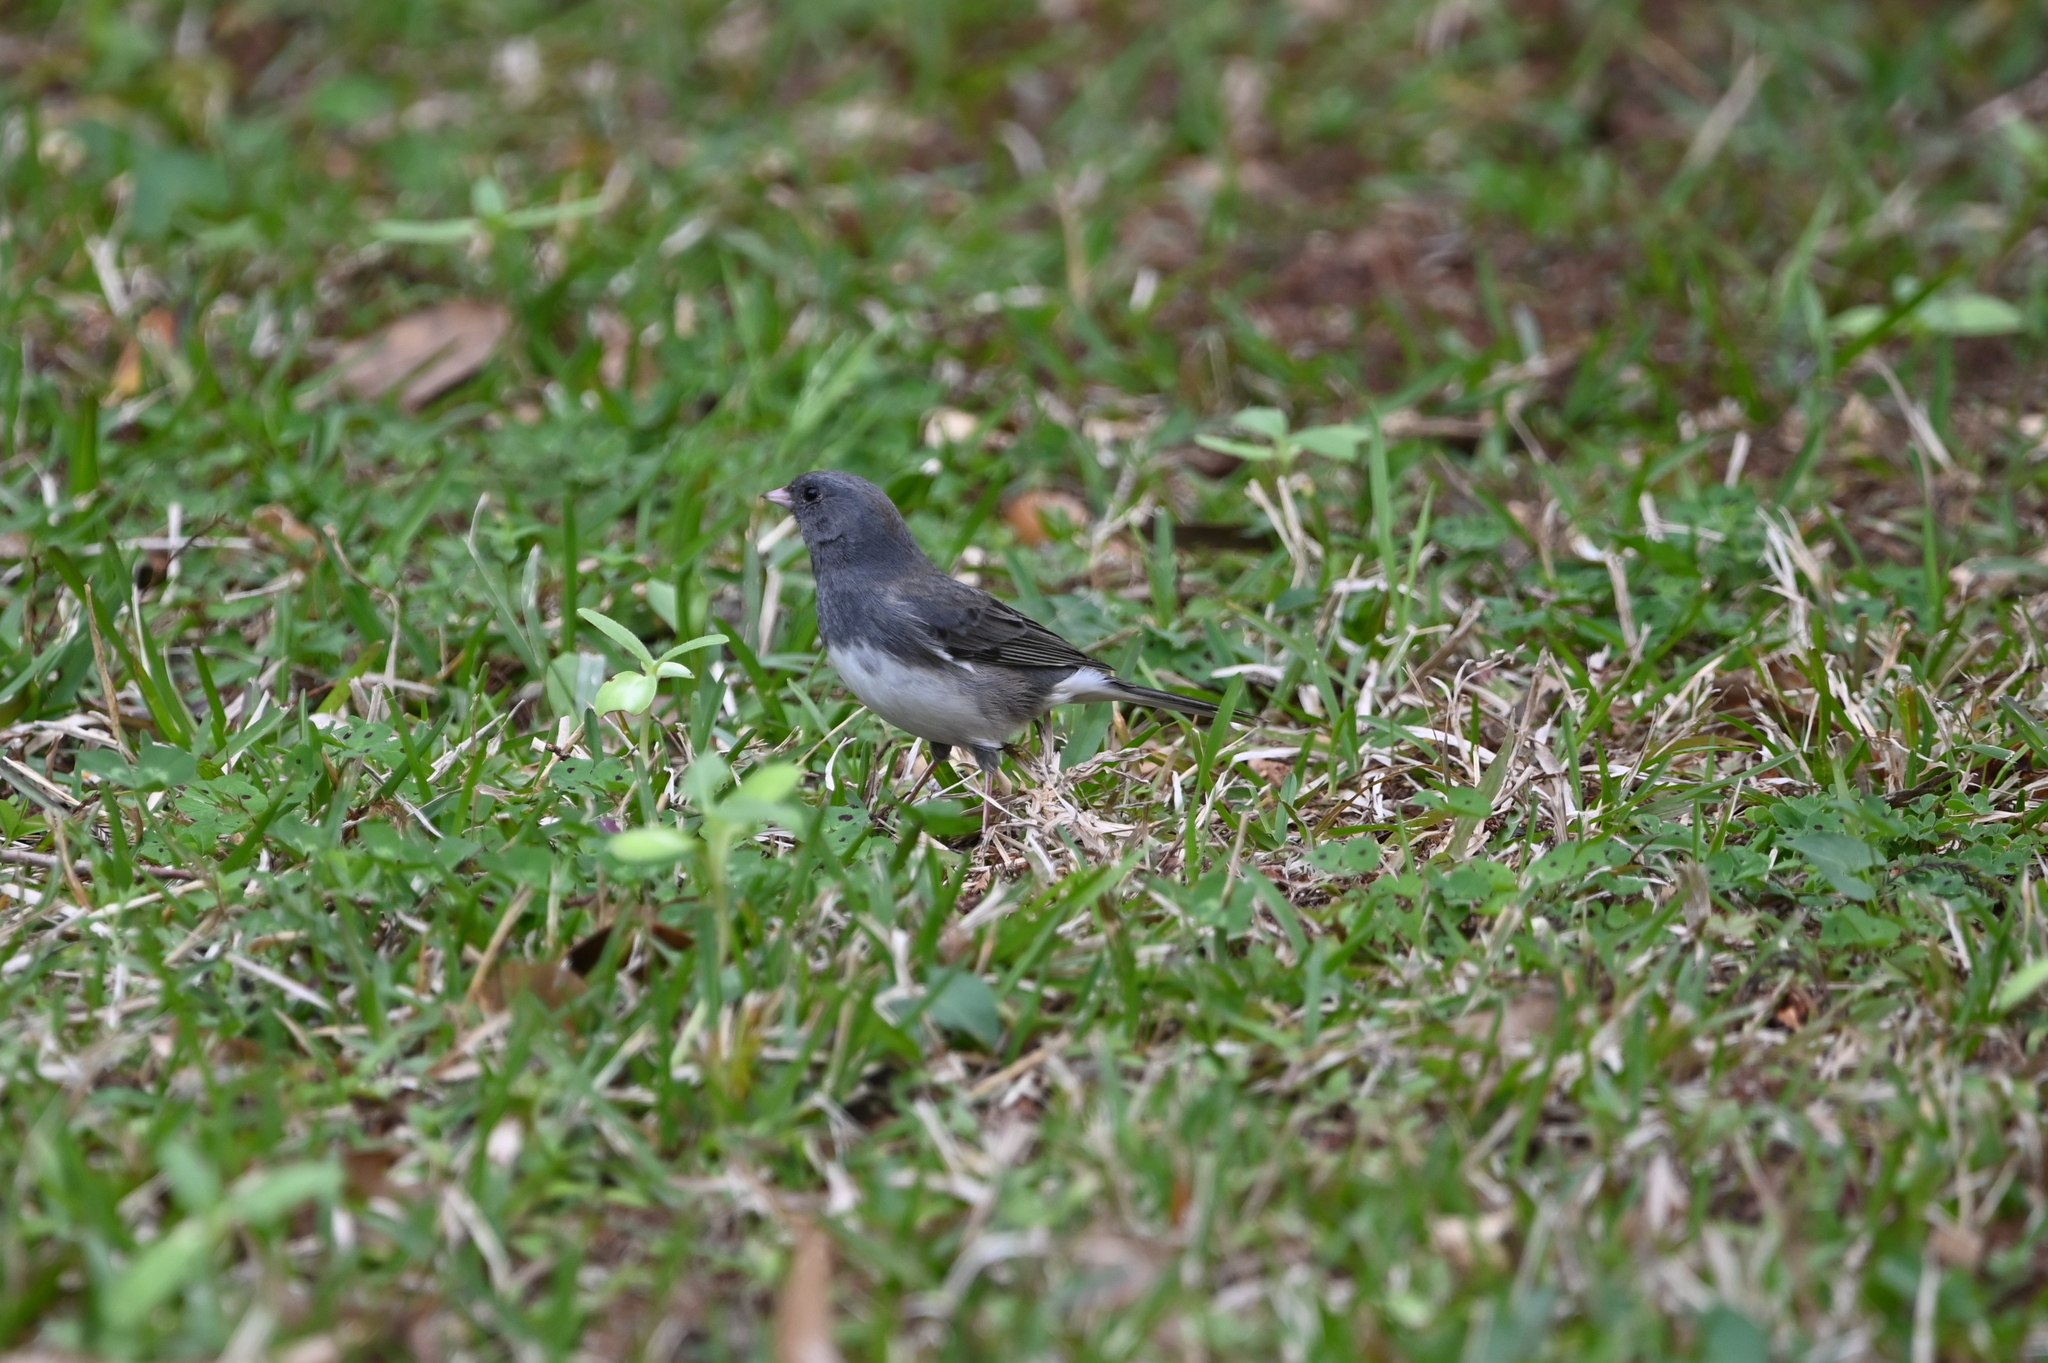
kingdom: Animalia
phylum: Chordata
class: Aves
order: Passeriformes
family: Passerellidae
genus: Junco
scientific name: Junco hyemalis
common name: Dark-eyed junco
